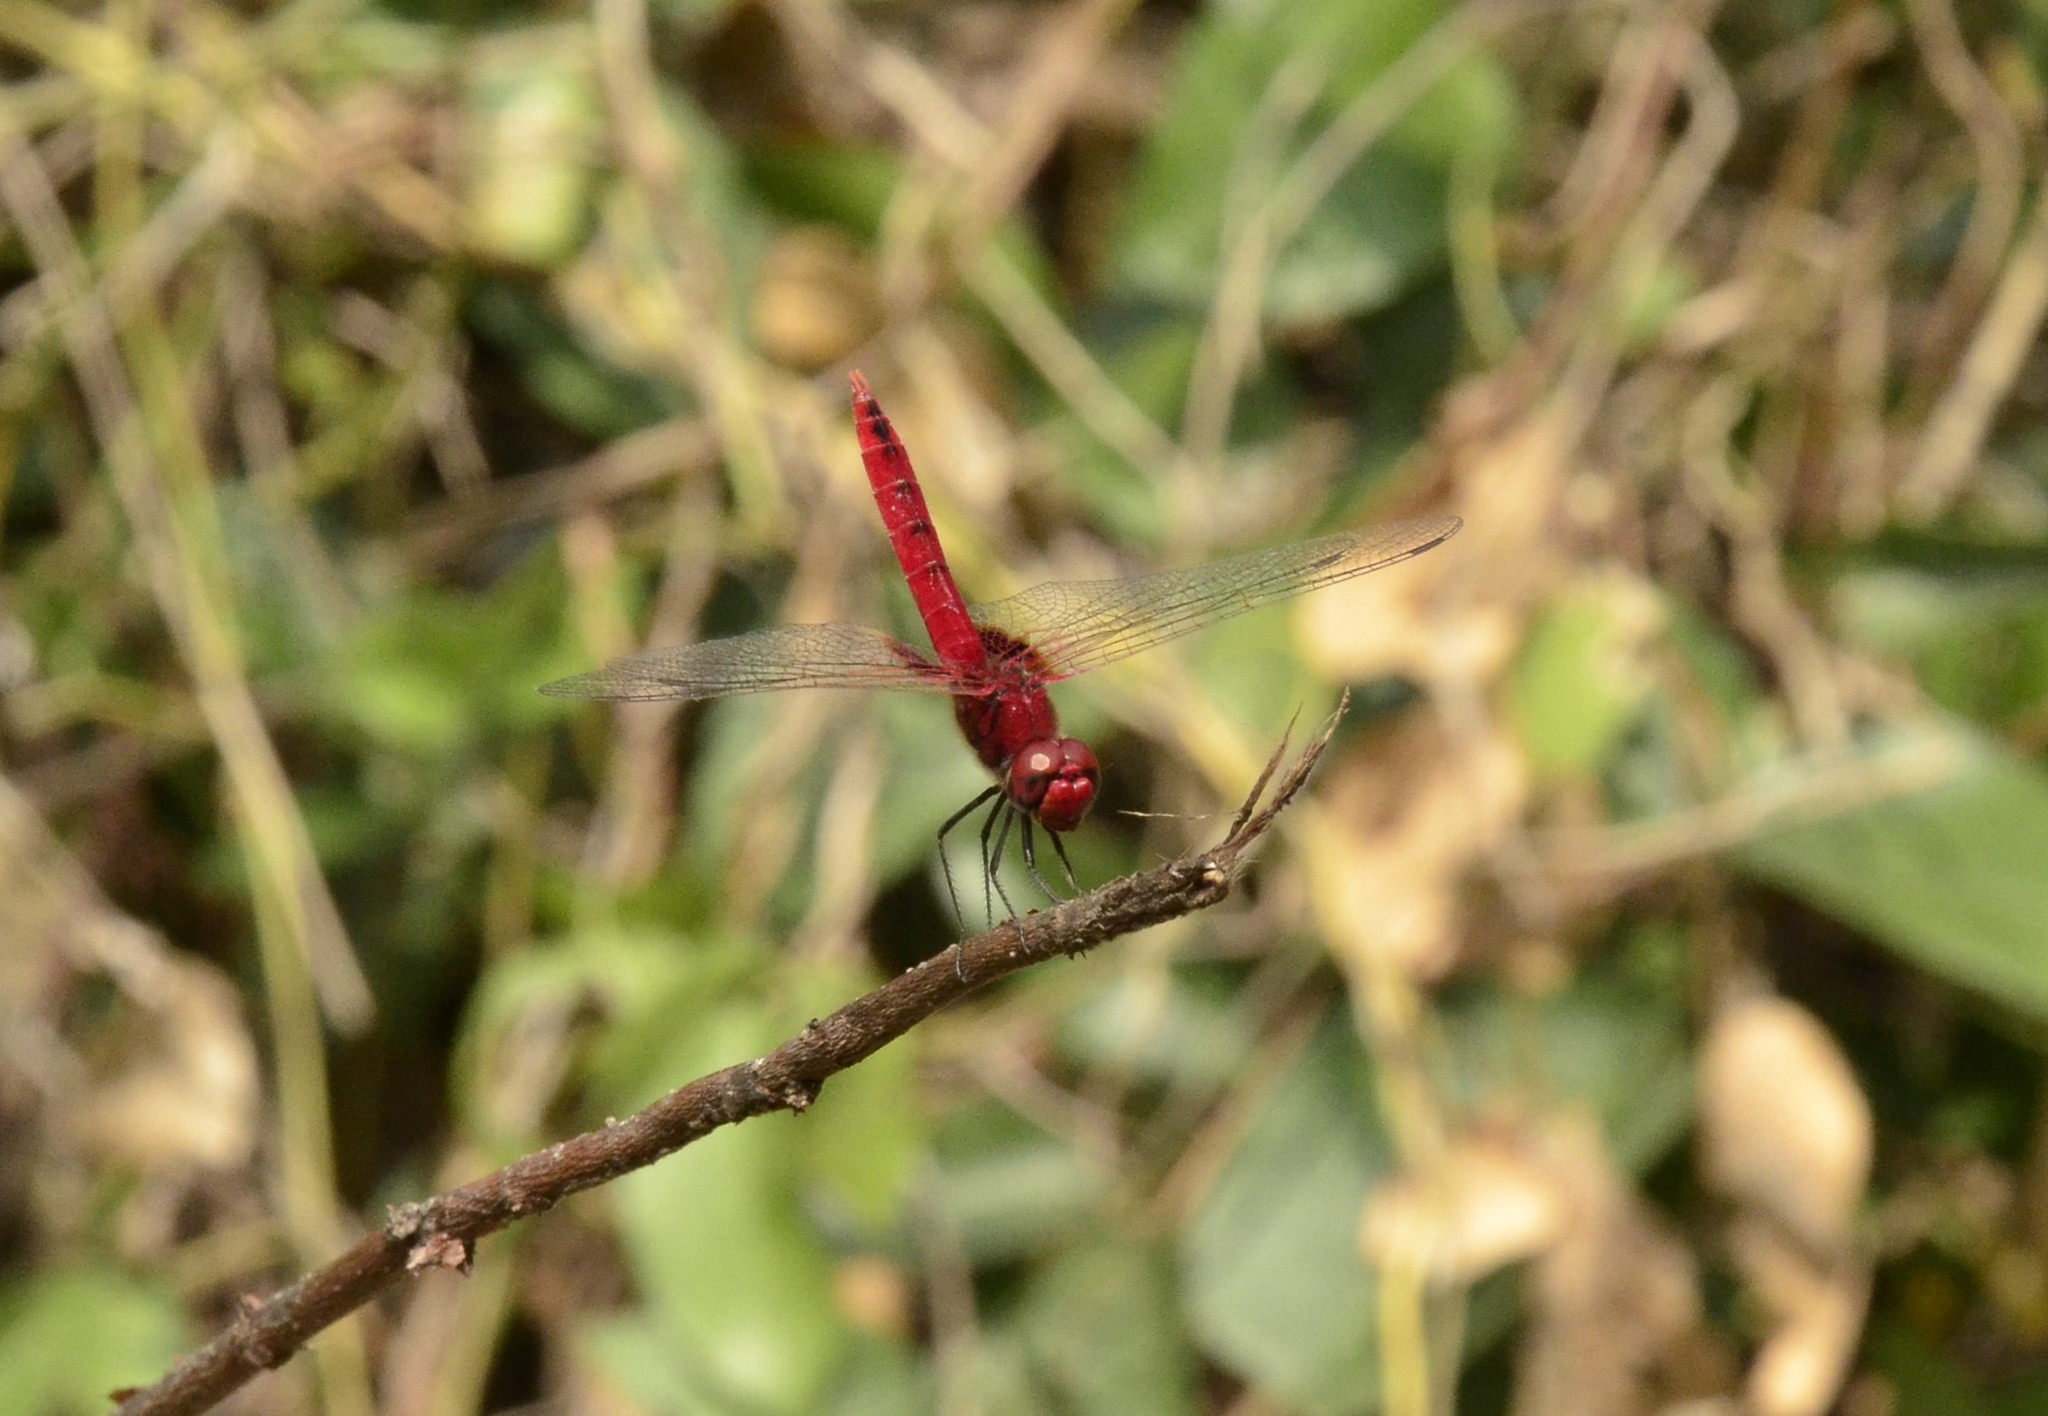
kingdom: Animalia
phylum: Arthropoda
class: Insecta
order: Odonata
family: Libellulidae
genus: Urothemis
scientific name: Urothemis signata
